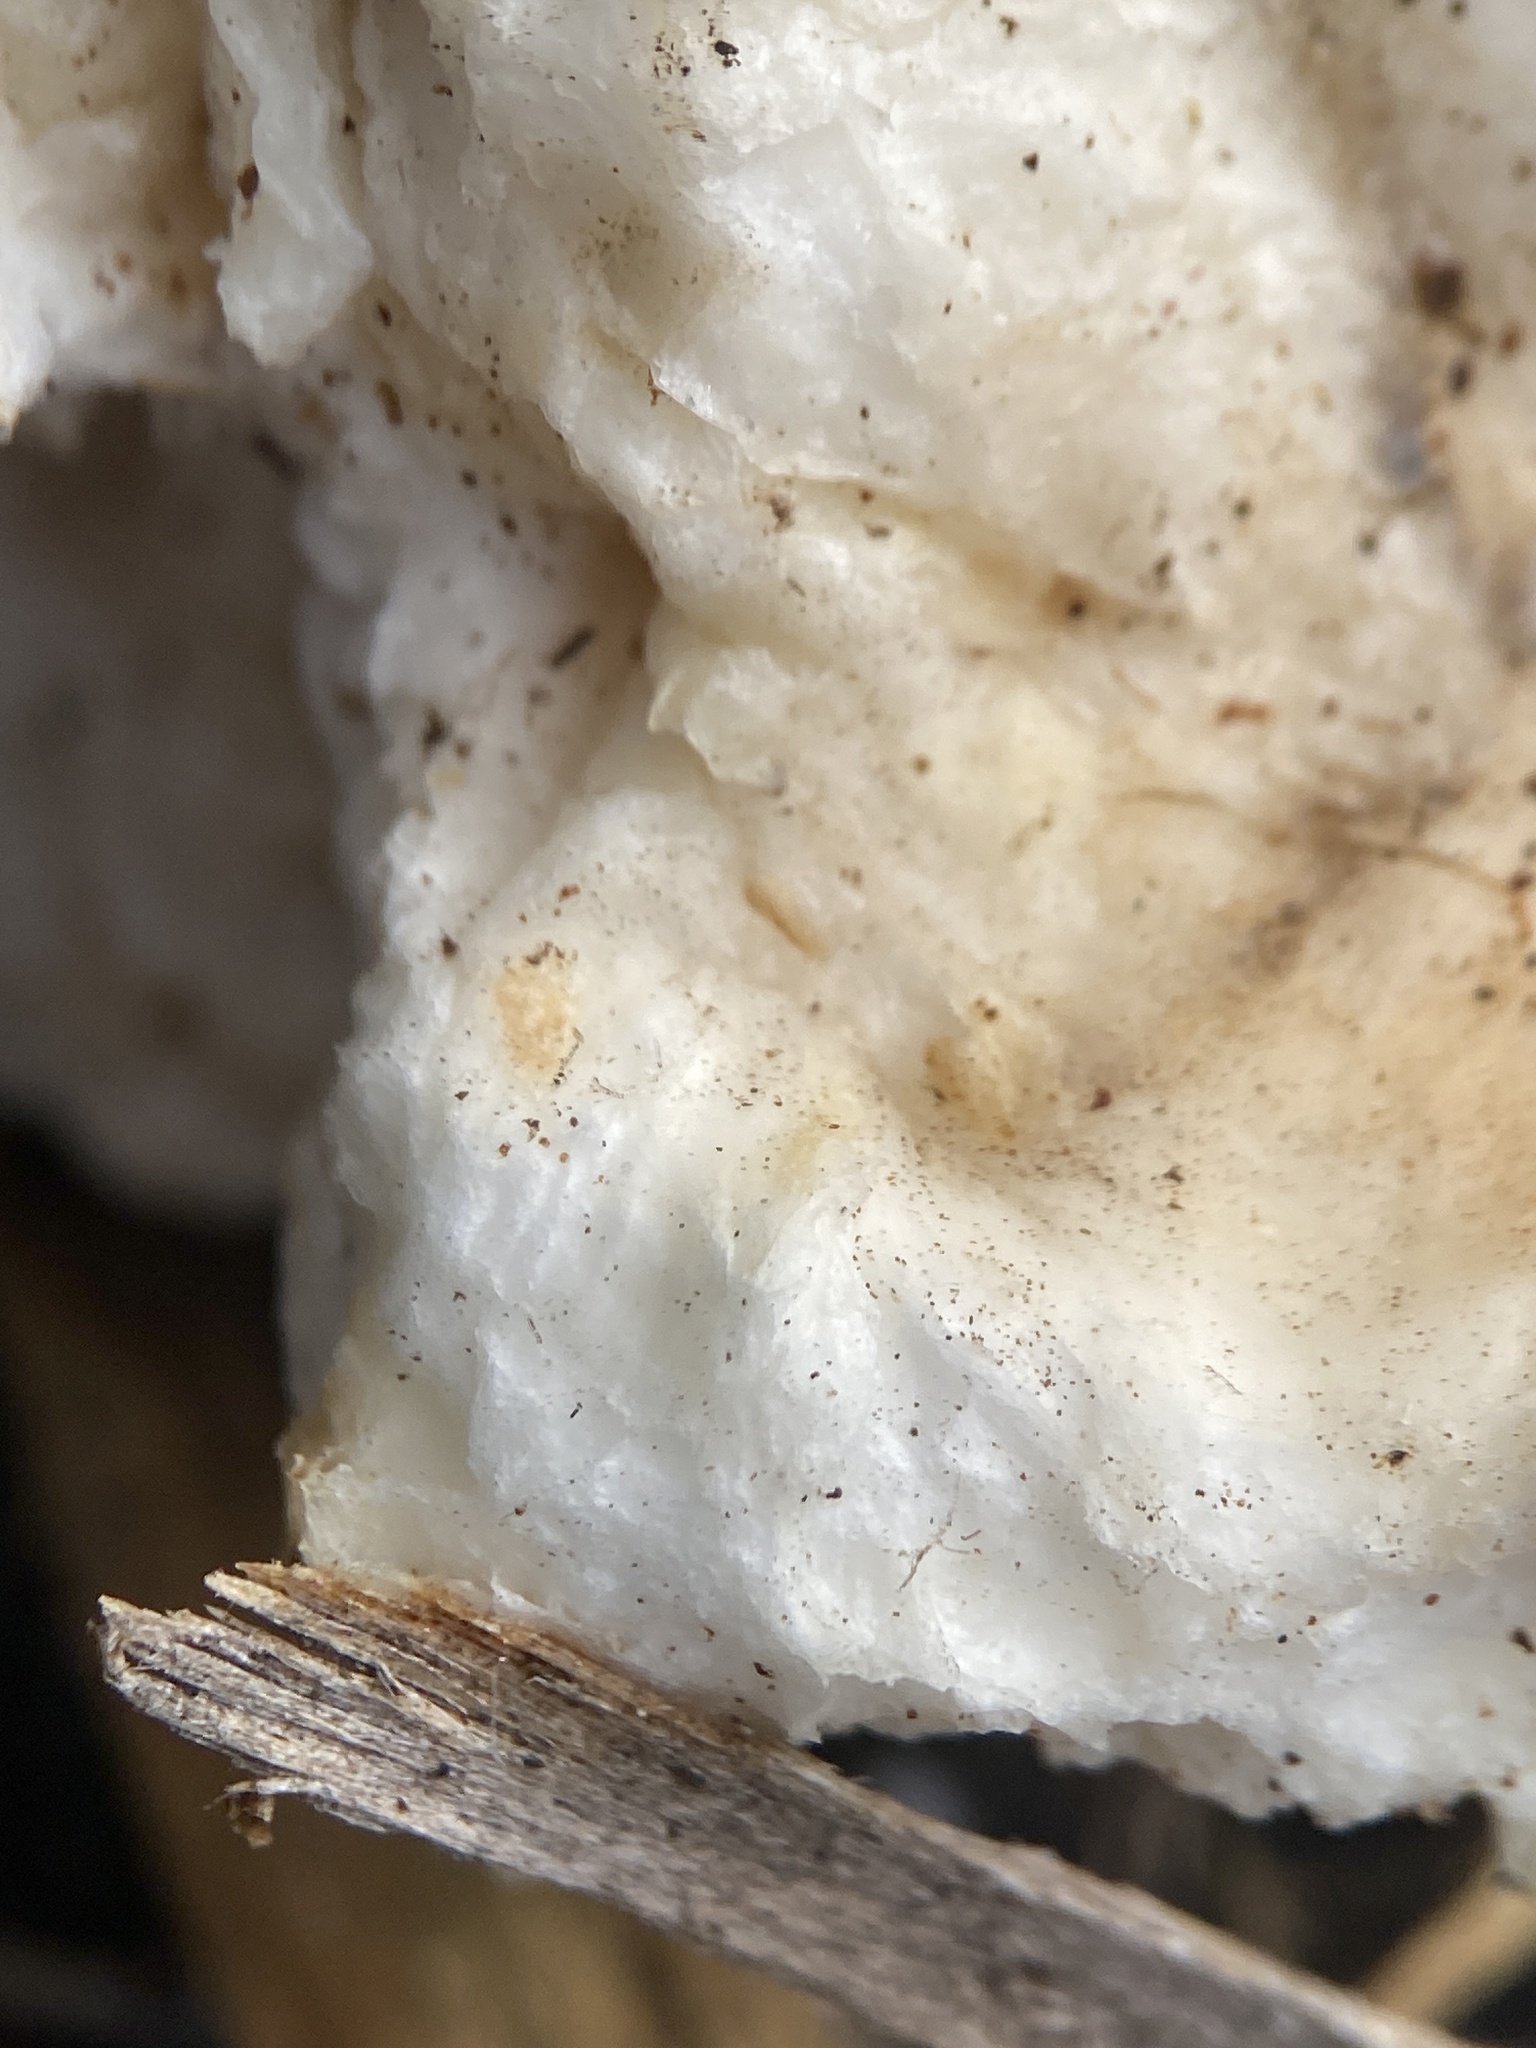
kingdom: Fungi
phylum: Basidiomycota
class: Agaricomycetes
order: Polyporales
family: Laetiporaceae
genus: Laetiporus
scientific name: Laetiporus portentosus
